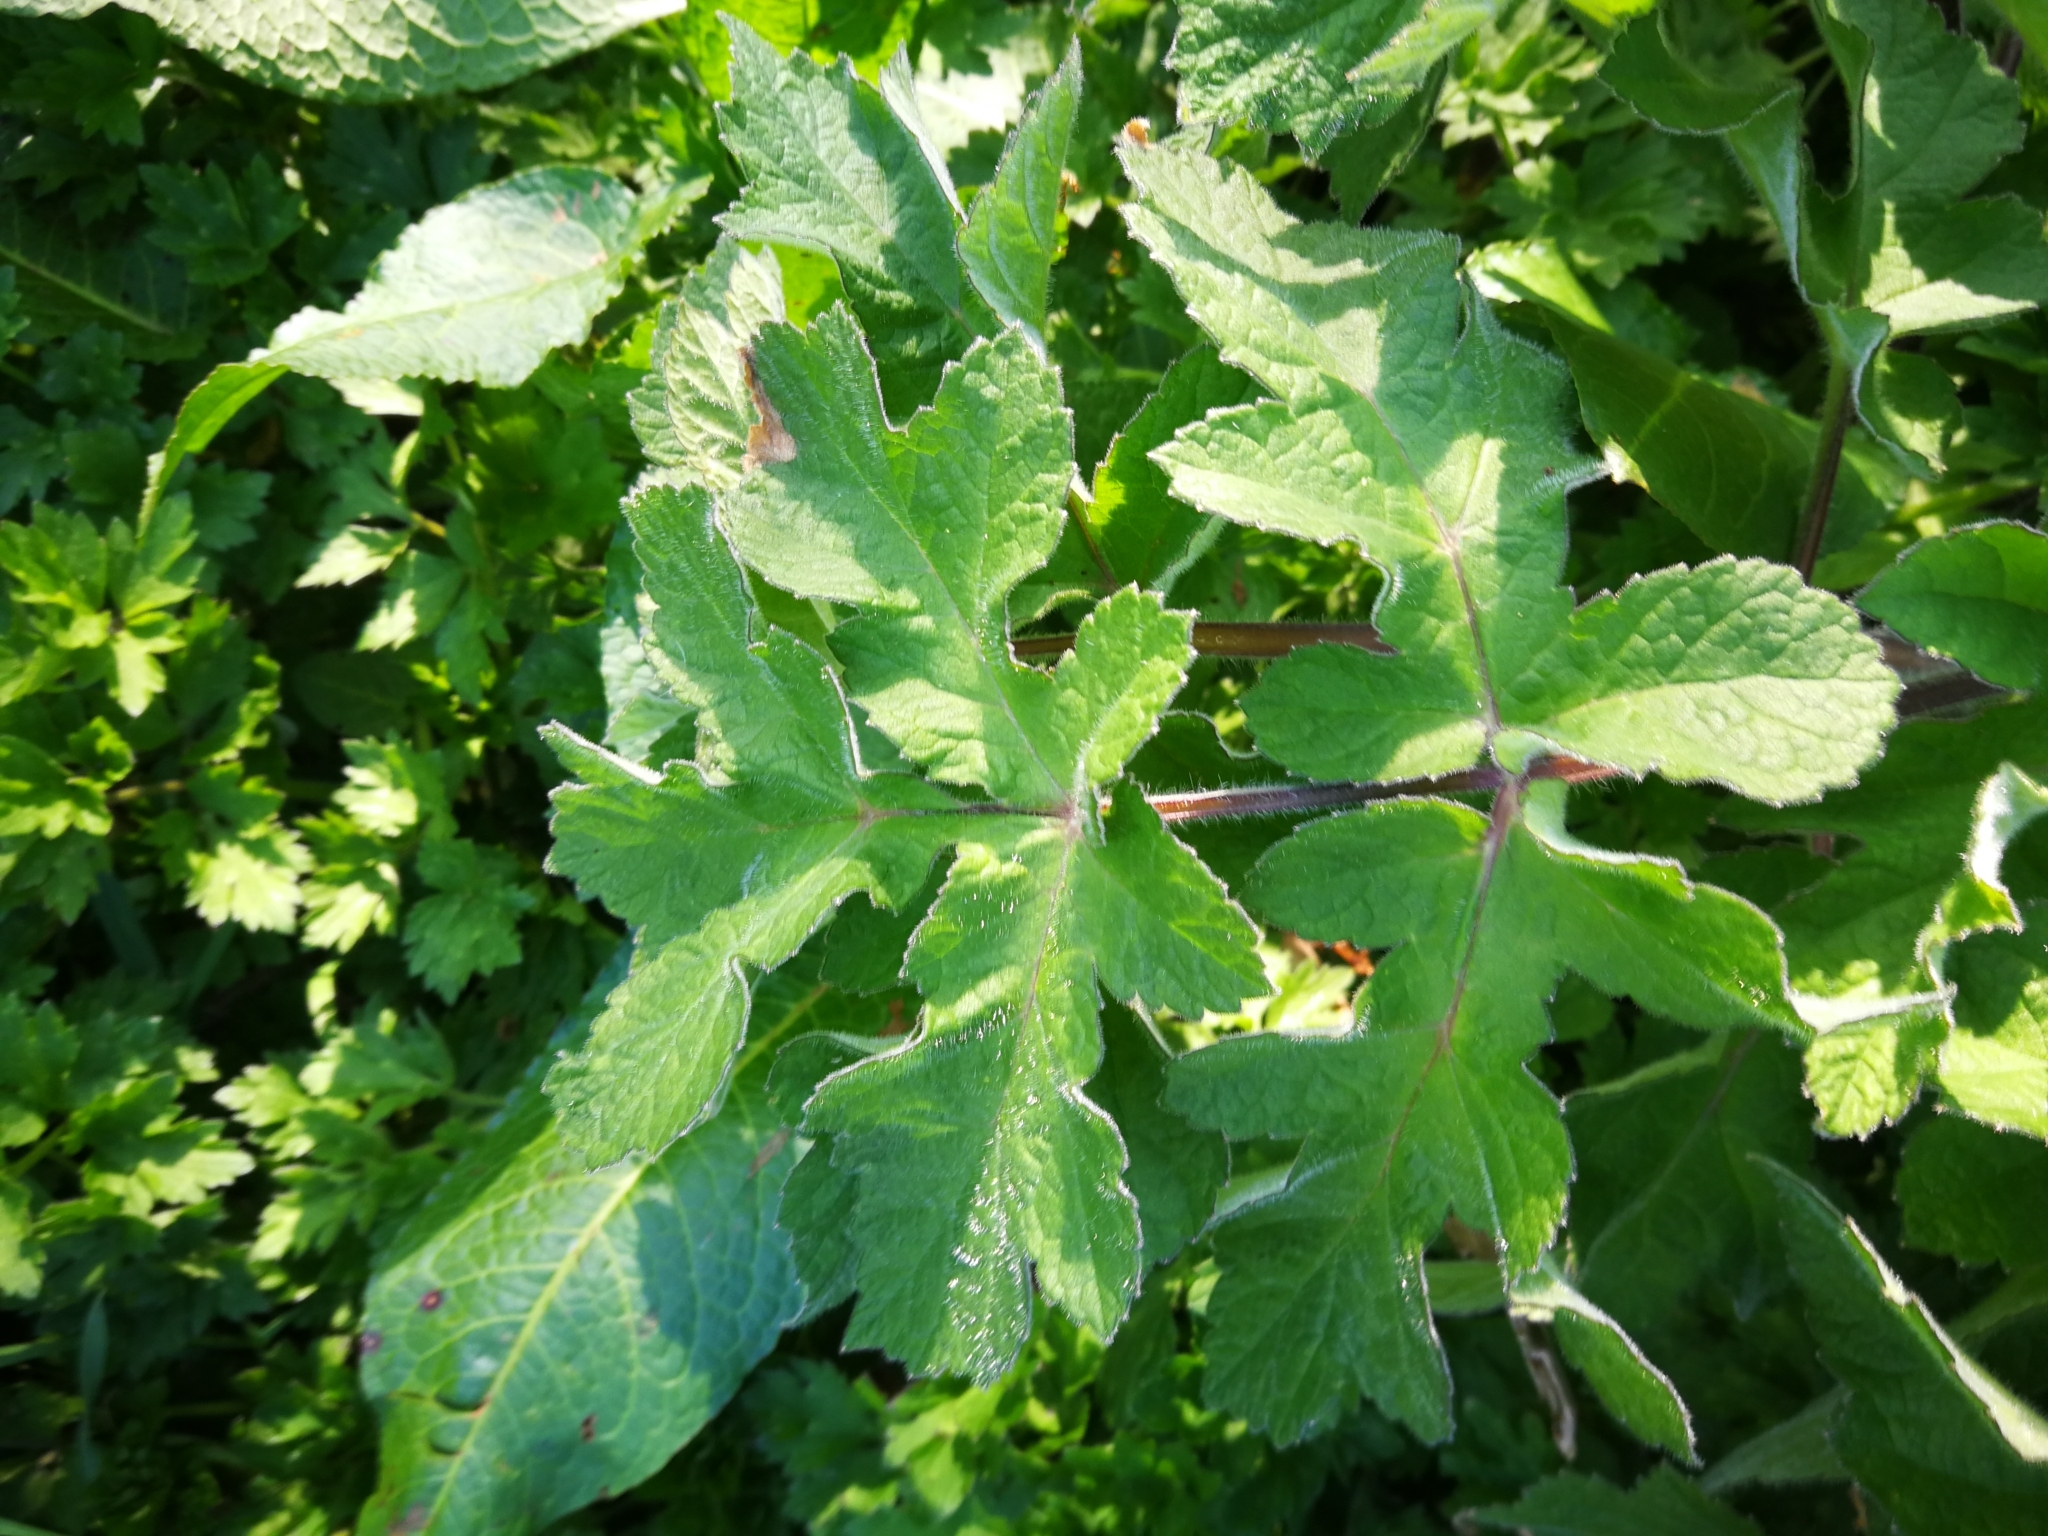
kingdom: Plantae
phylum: Tracheophyta
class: Magnoliopsida
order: Apiales
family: Apiaceae
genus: Heracleum
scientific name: Heracleum sphondylium
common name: Hogweed
